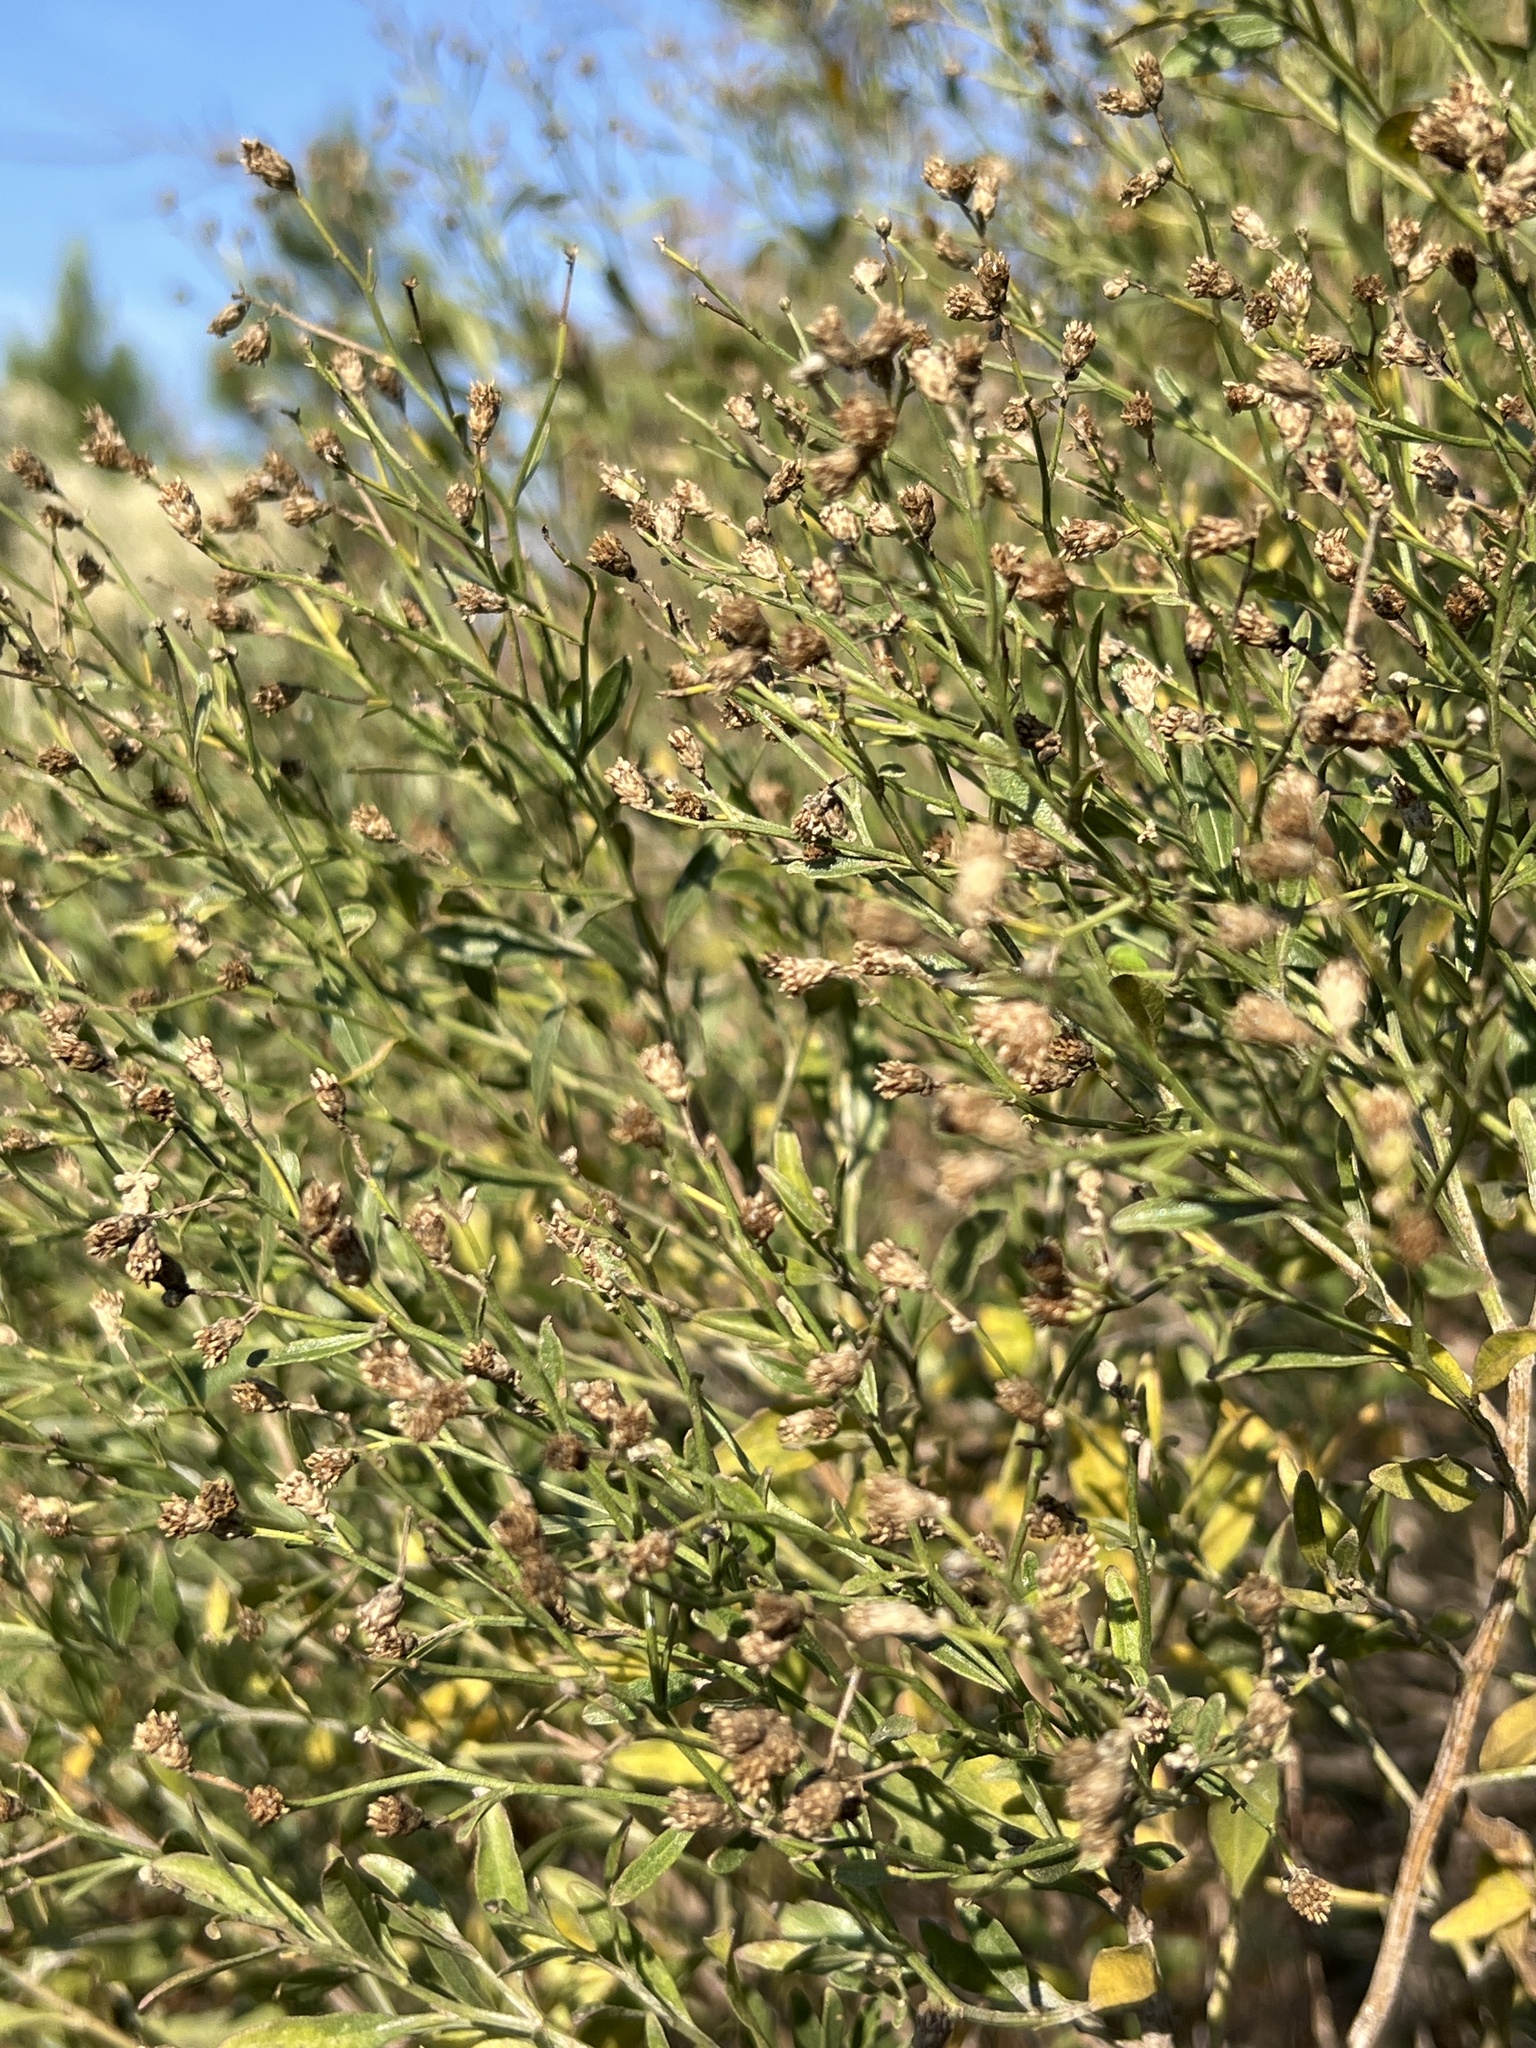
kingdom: Plantae
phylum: Tracheophyta
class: Magnoliopsida
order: Asterales
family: Asteraceae
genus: Baccharis
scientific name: Baccharis halimifolia
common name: Eastern baccharis
